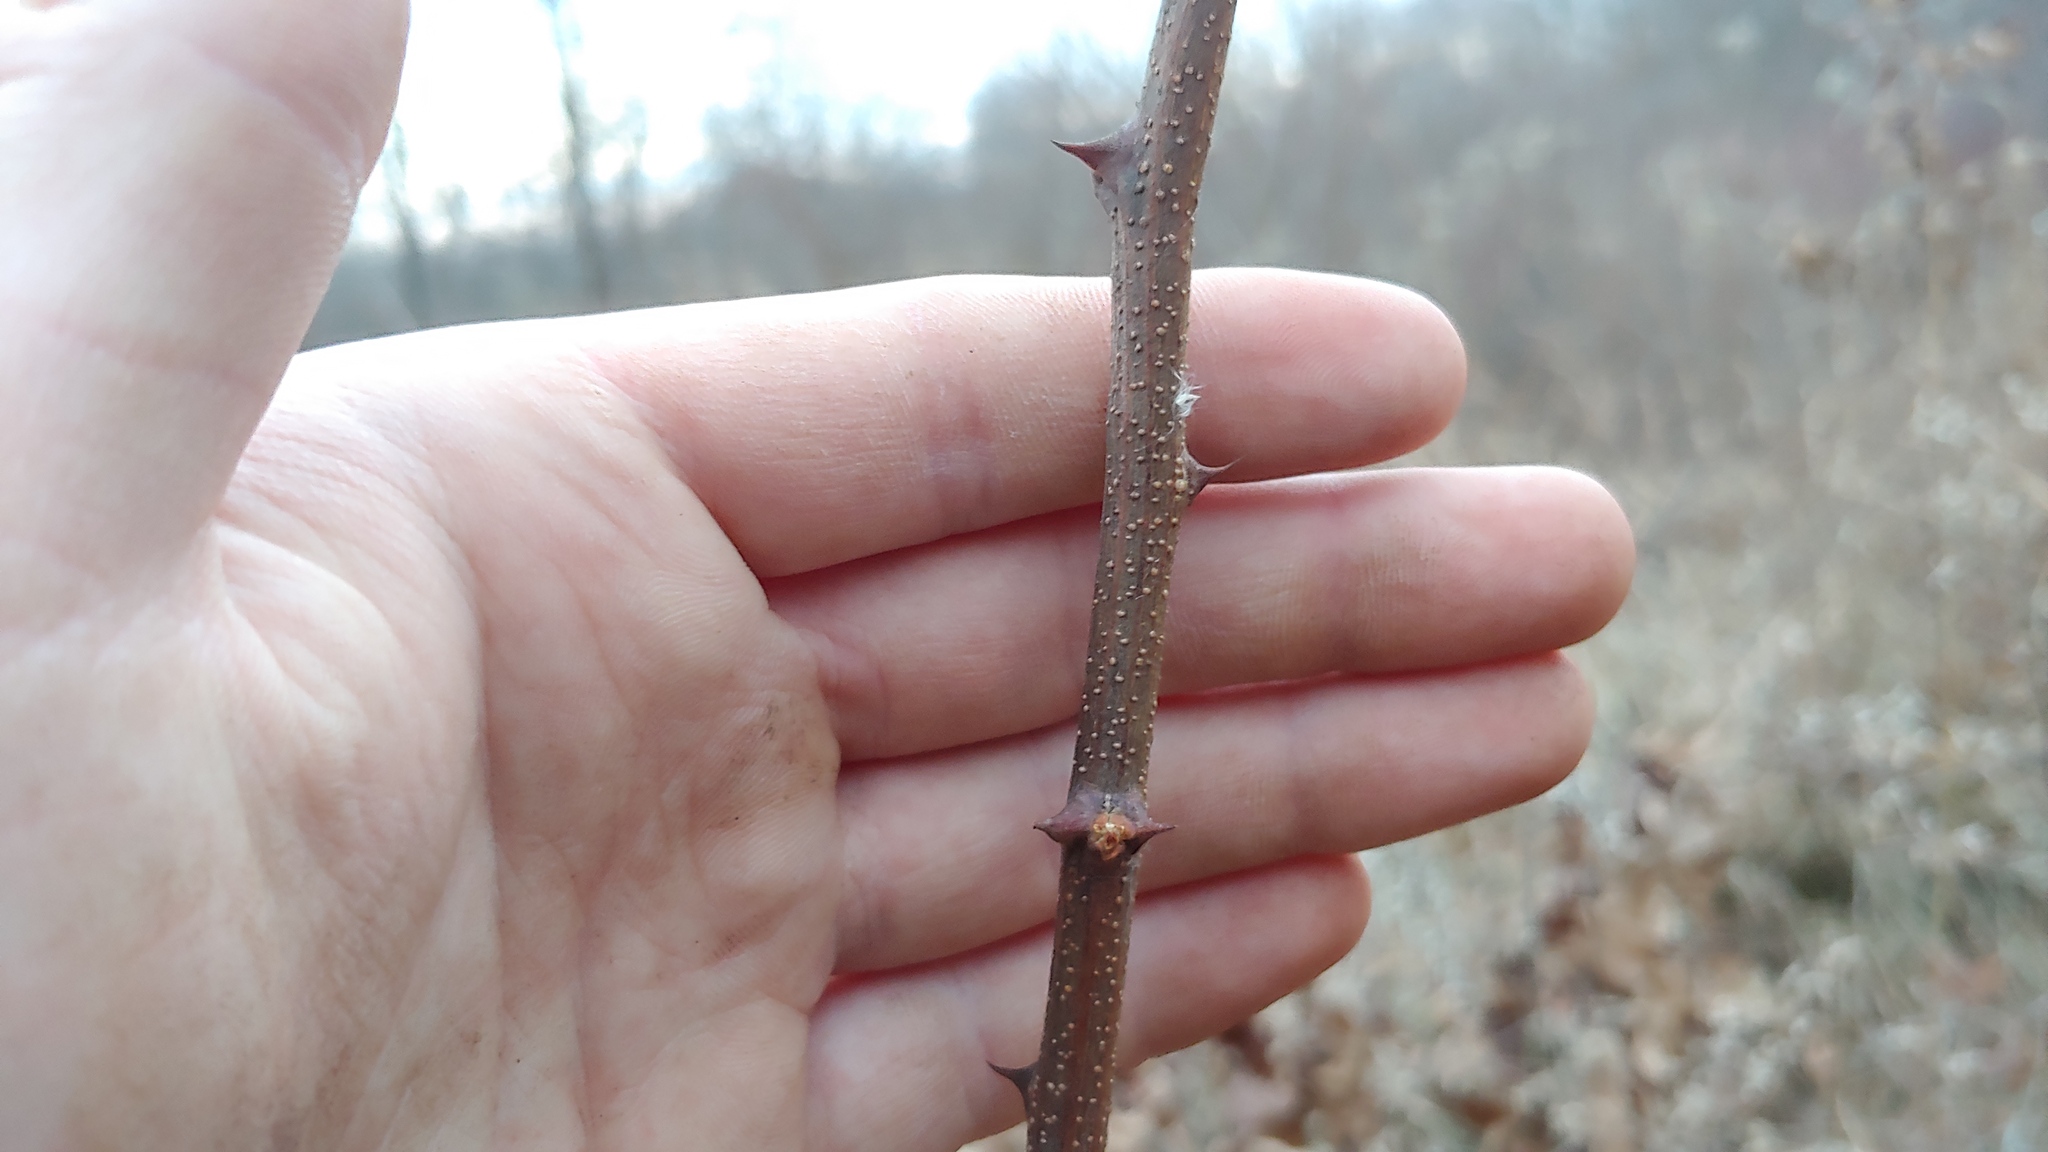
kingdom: Plantae
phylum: Tracheophyta
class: Magnoliopsida
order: Sapindales
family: Rutaceae
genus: Zanthoxylum
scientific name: Zanthoxylum americanum
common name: Northern prickly-ash
